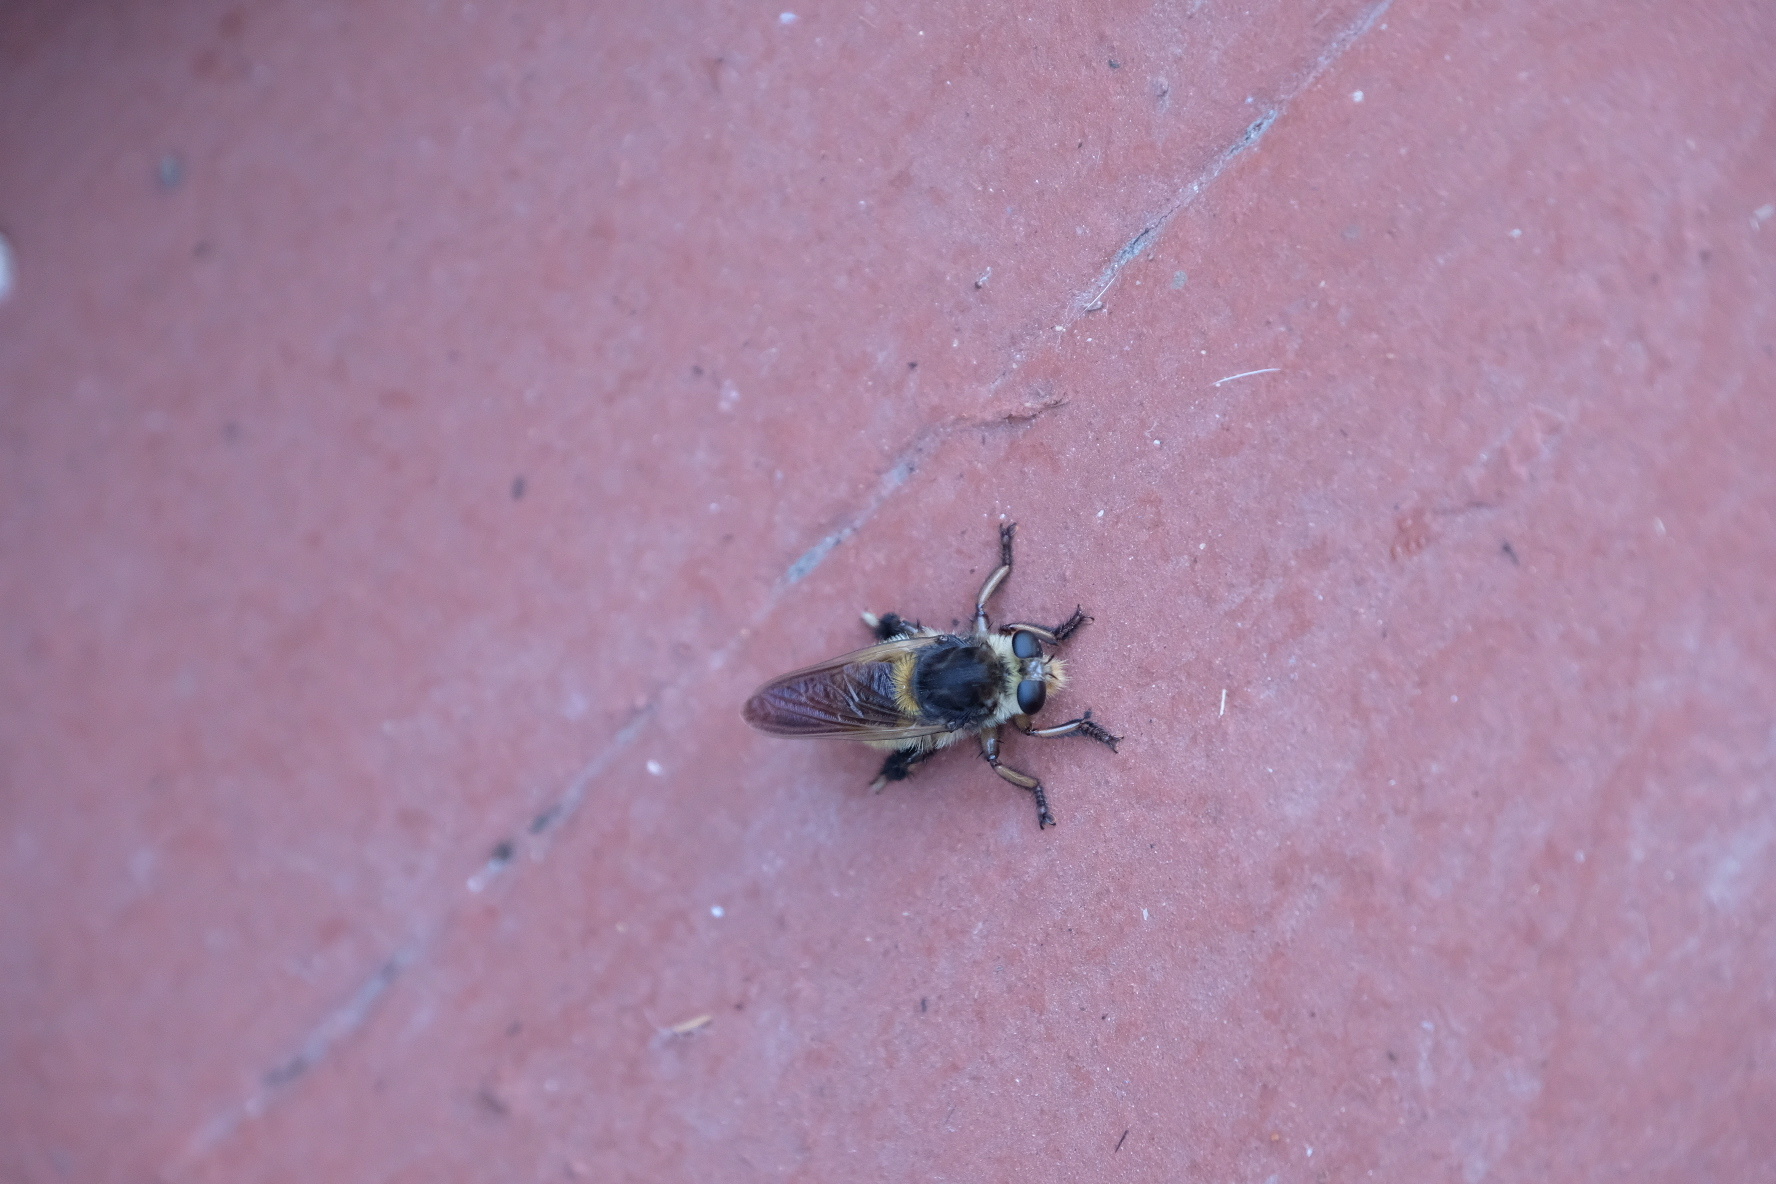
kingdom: Animalia
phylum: Arthropoda
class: Insecta
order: Diptera
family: Asilidae
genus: Mallophora
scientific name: Mallophora fautrix
